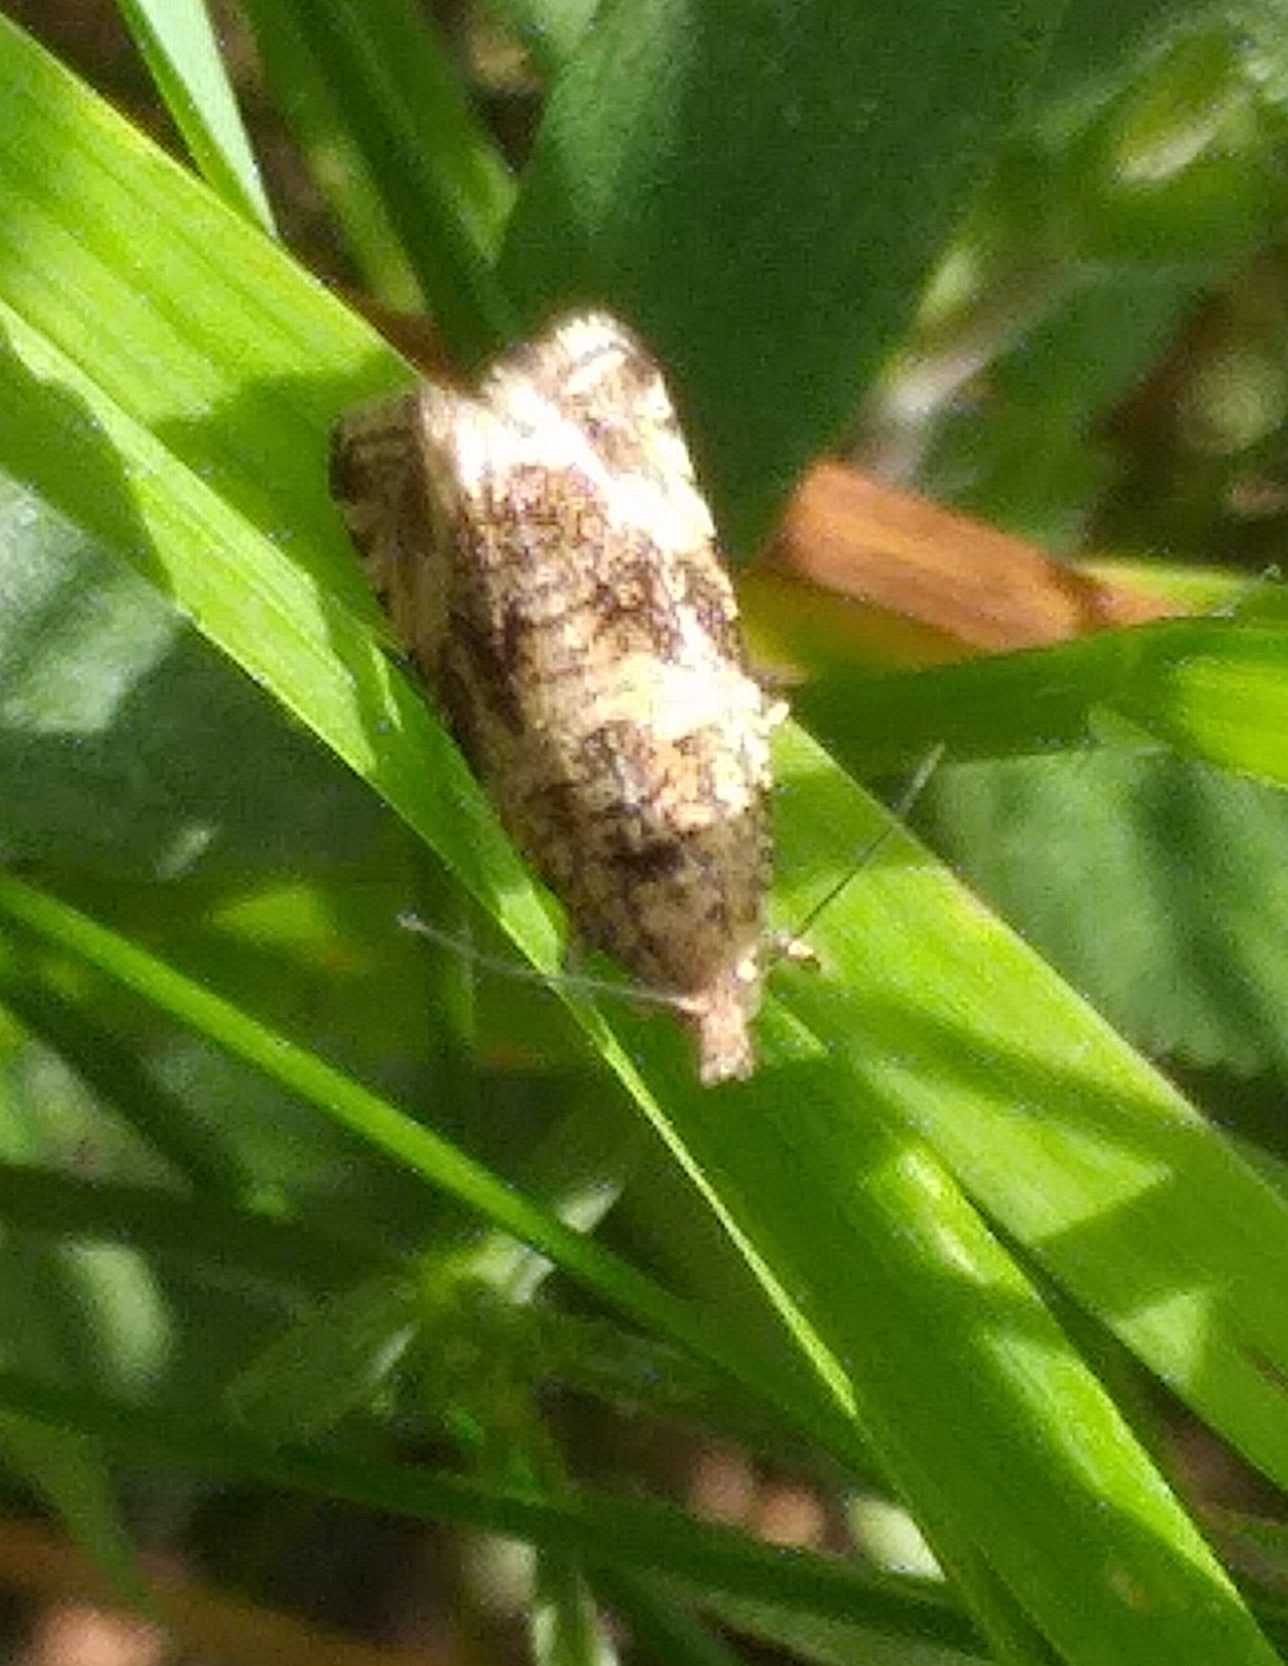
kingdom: Animalia
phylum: Arthropoda
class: Insecta
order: Lepidoptera
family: Tortricidae
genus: Syricoris
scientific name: Syricoris lacunana
